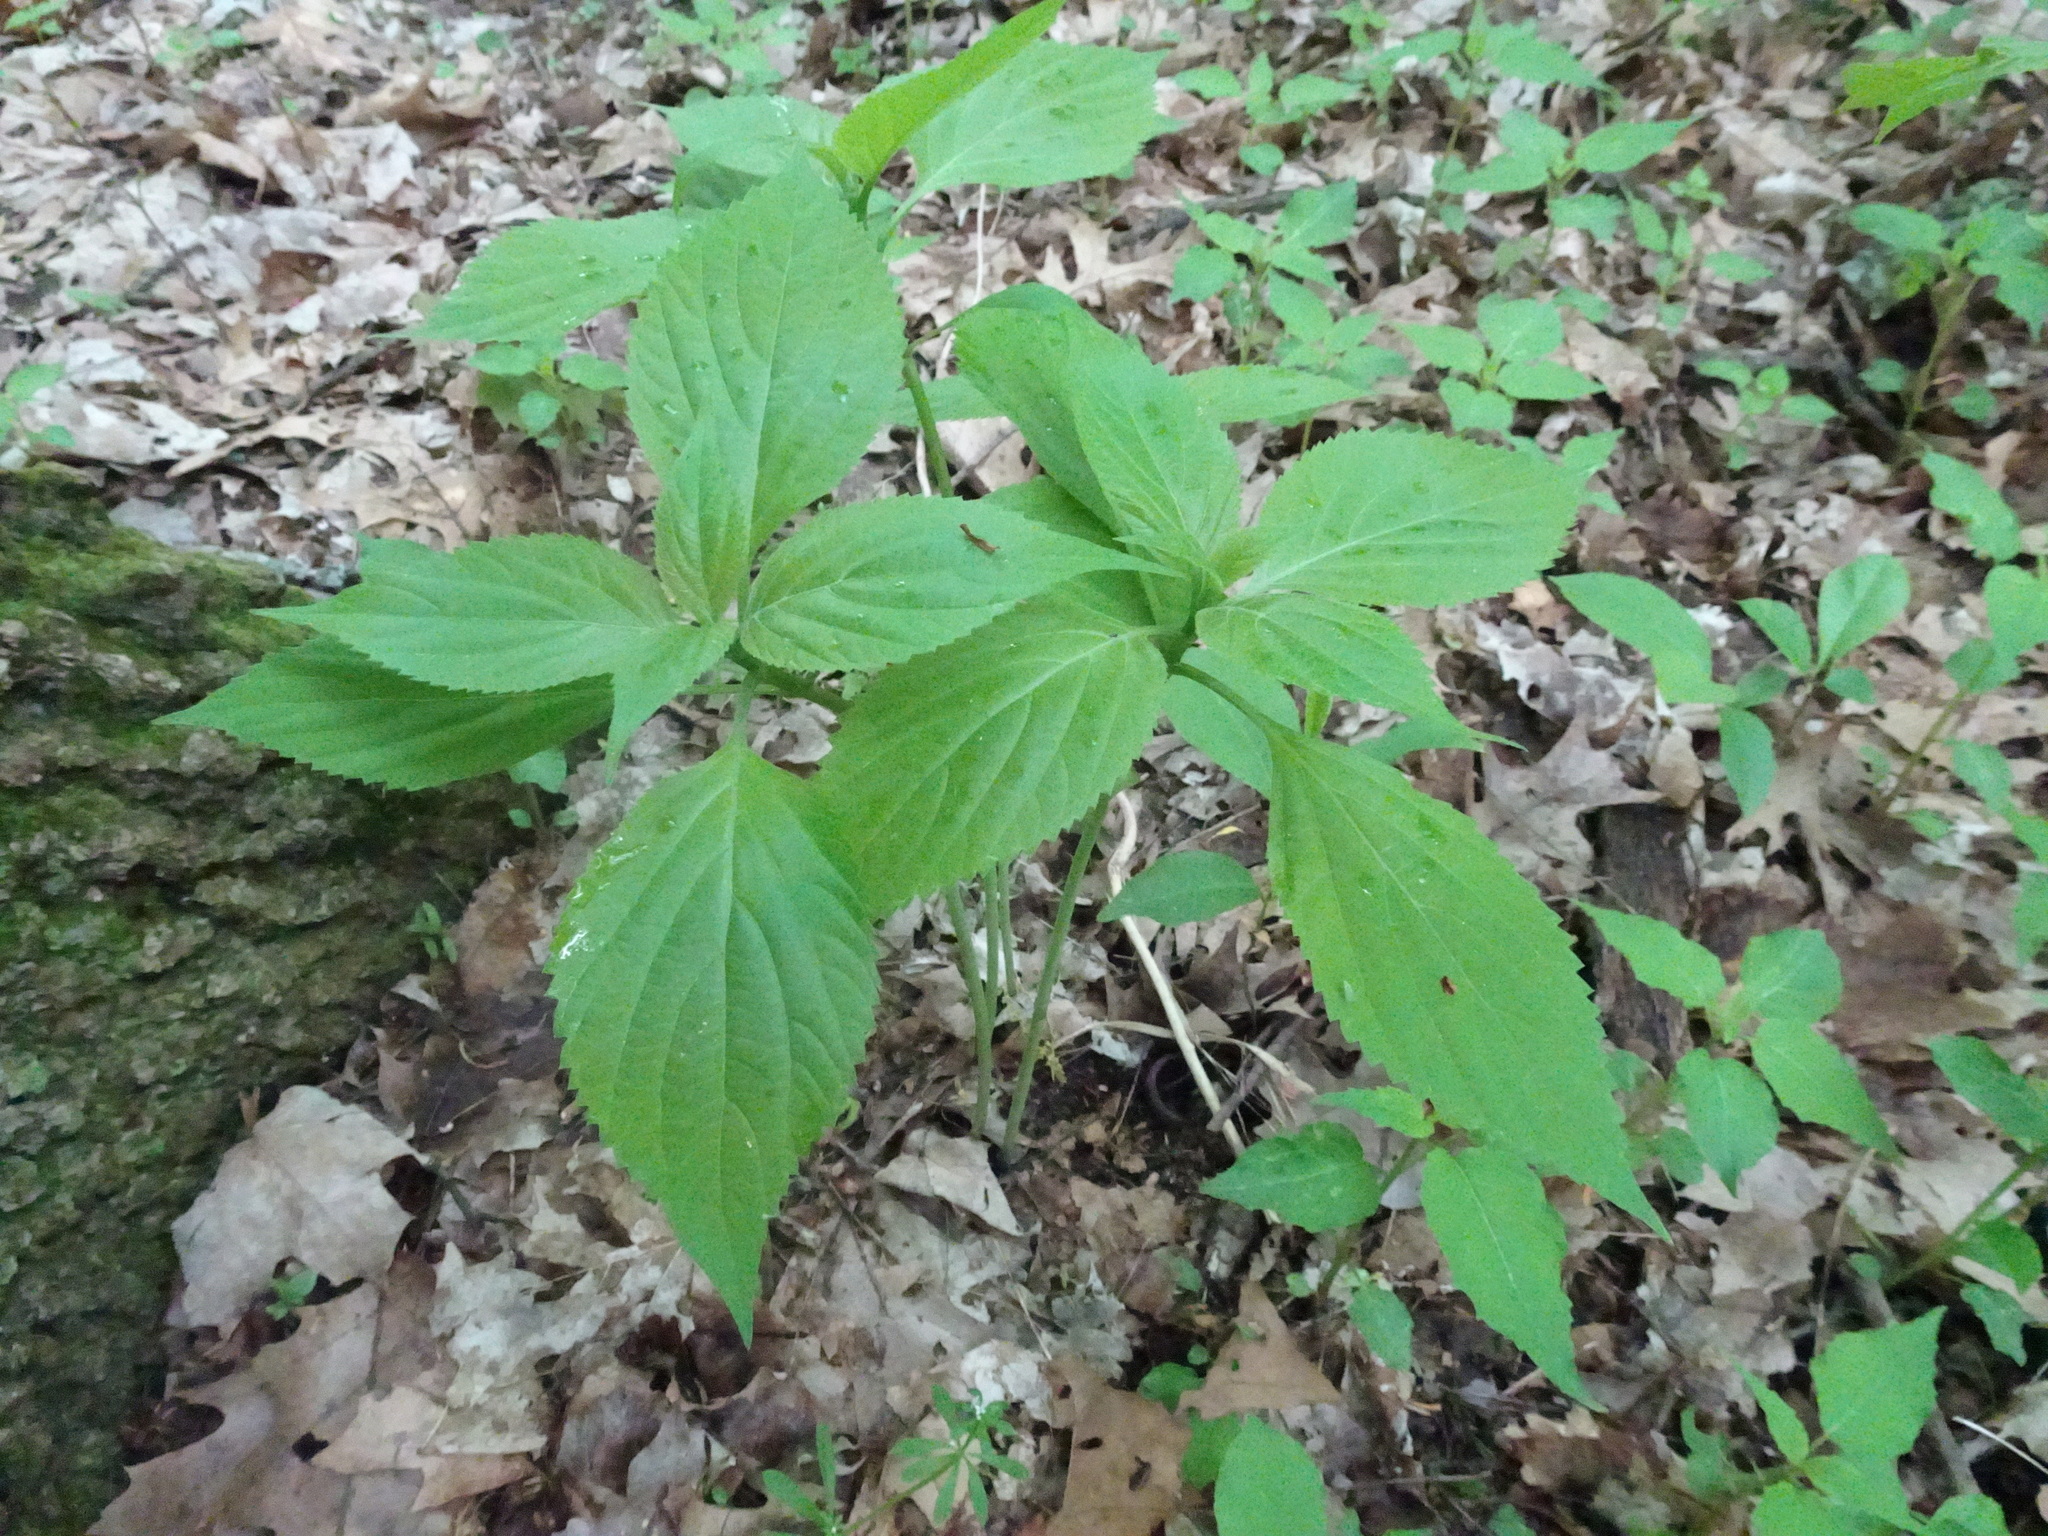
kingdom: Plantae
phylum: Tracheophyta
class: Magnoliopsida
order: Lamiales
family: Lamiaceae
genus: Collinsonia
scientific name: Collinsonia canadensis
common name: Northern horsebalm
